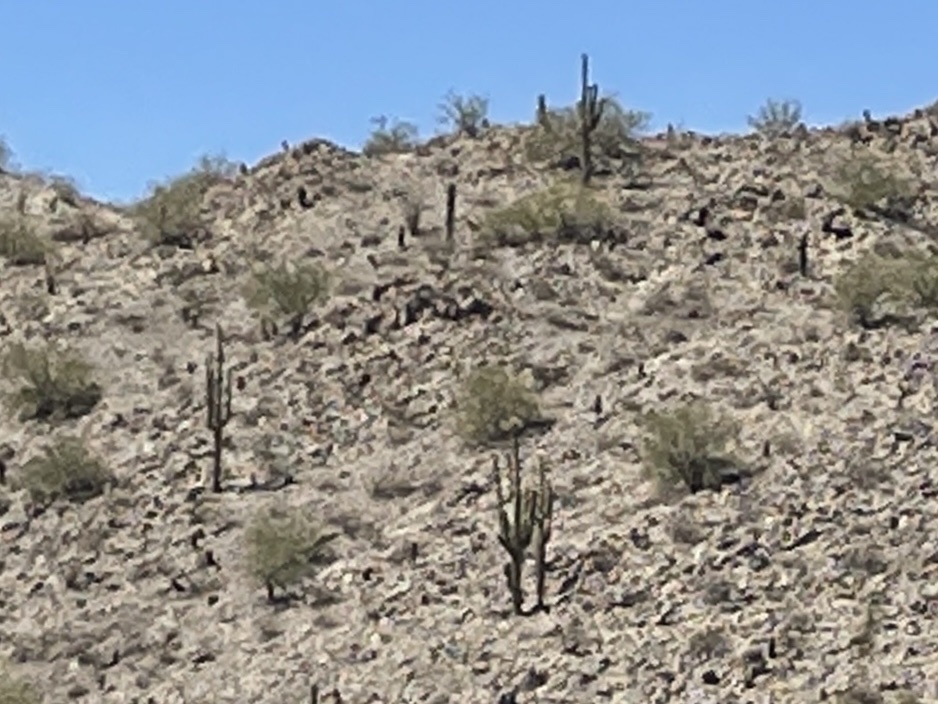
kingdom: Plantae
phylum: Tracheophyta
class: Magnoliopsida
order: Caryophyllales
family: Cactaceae
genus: Carnegiea
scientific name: Carnegiea gigantea
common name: Saguaro
